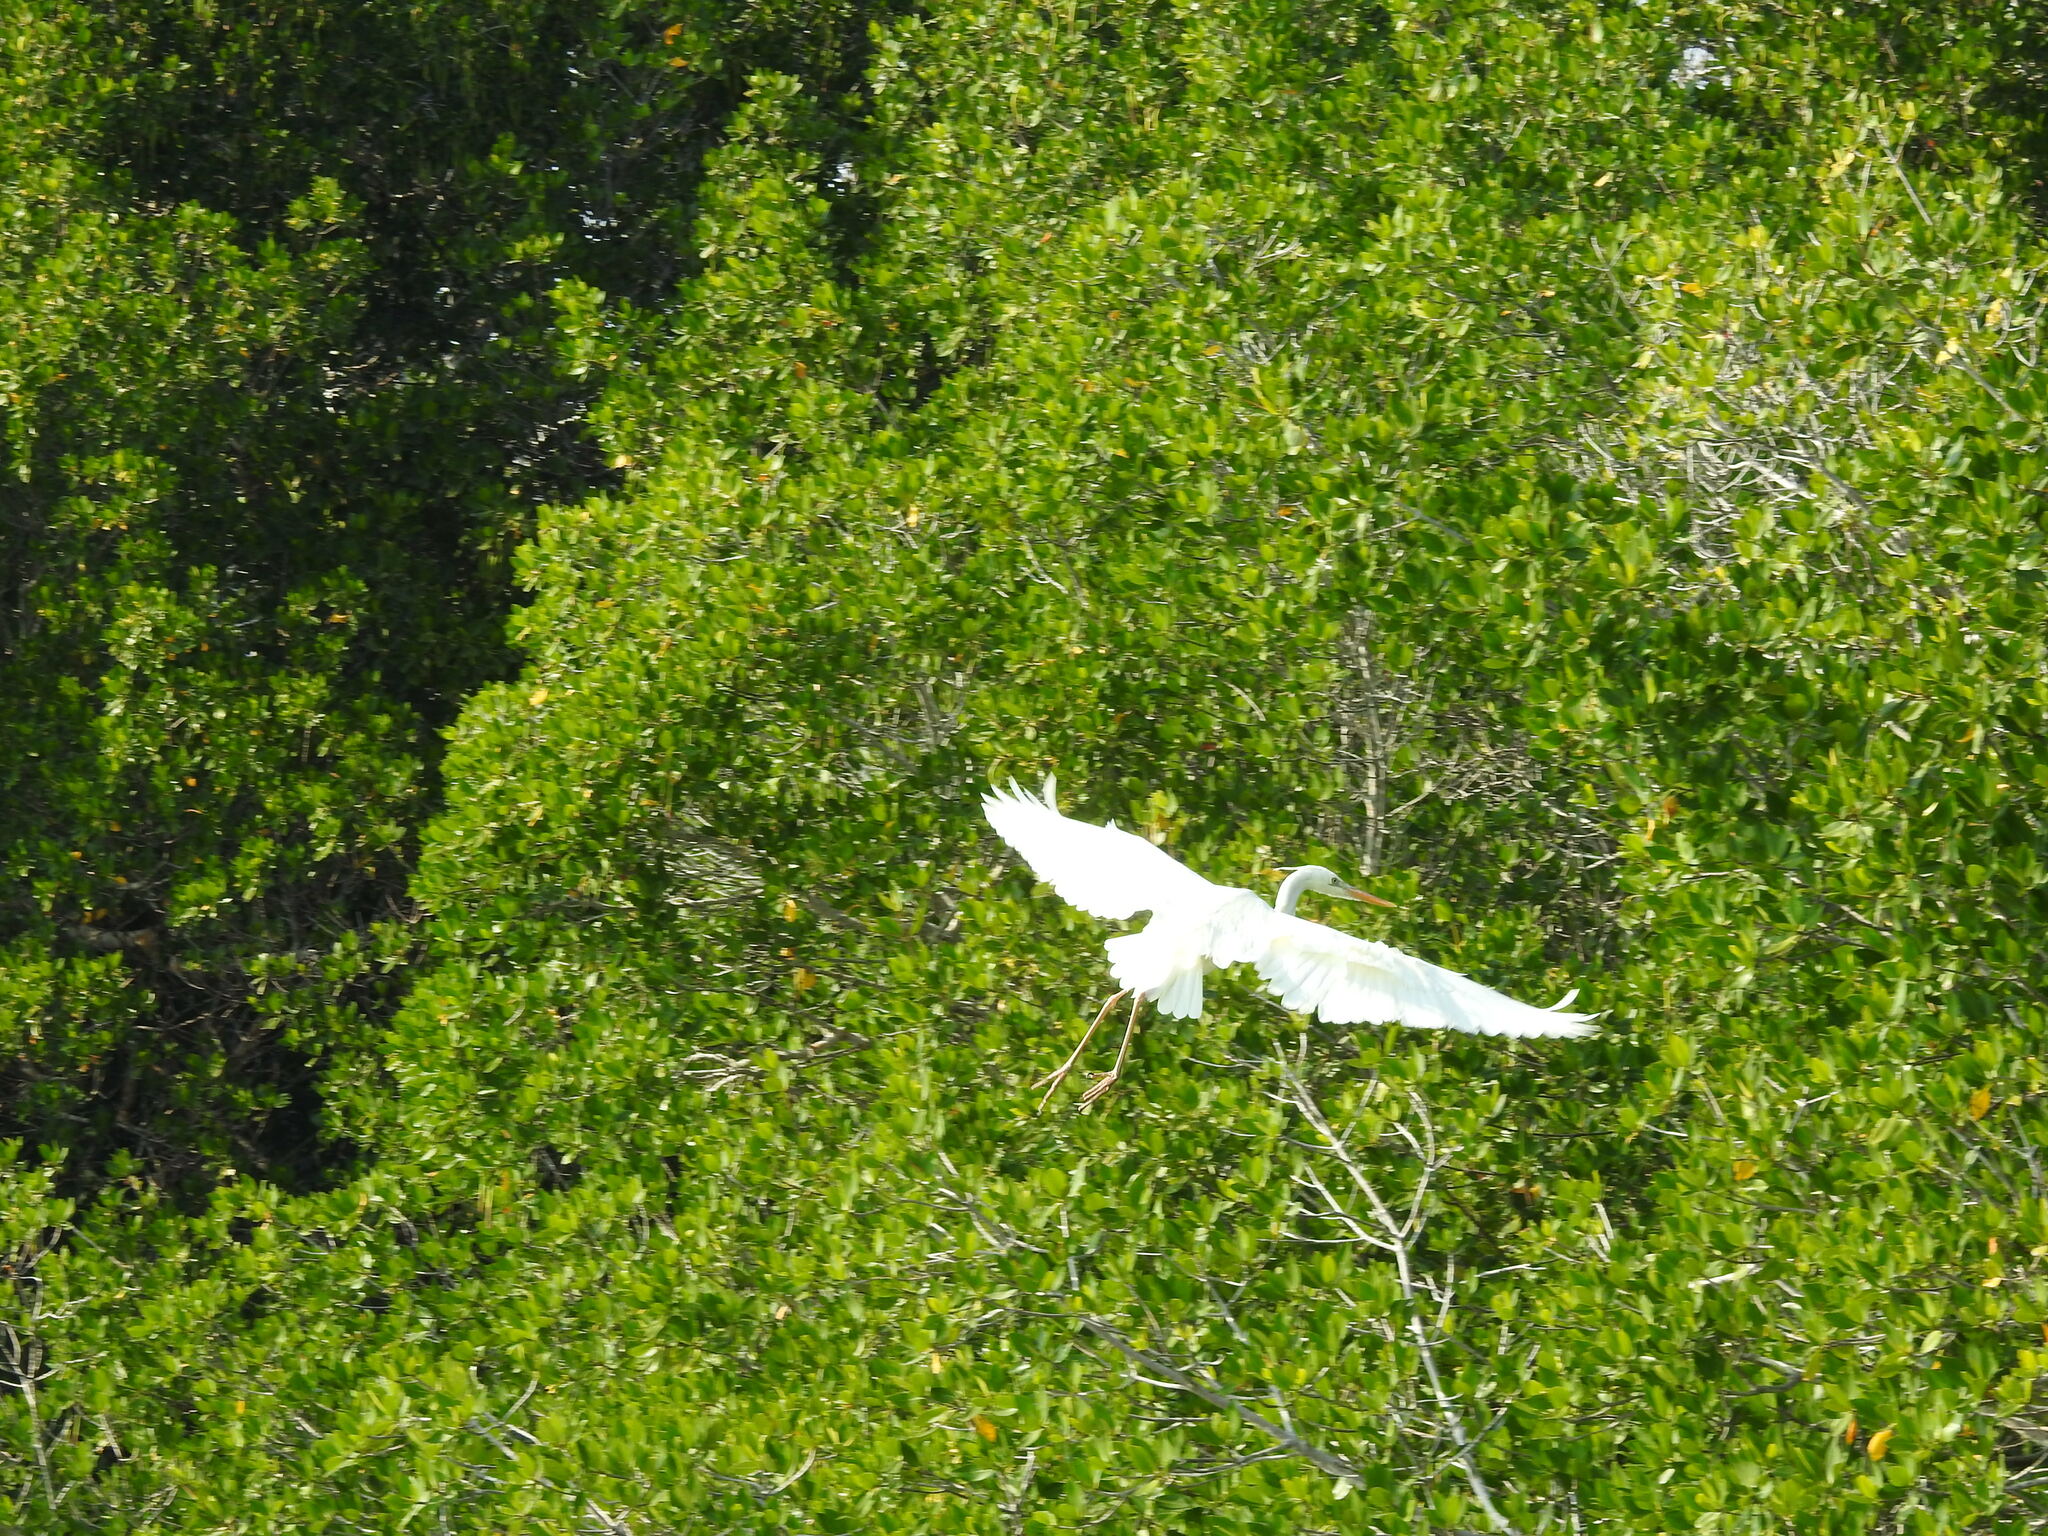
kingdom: Animalia
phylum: Chordata
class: Aves
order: Pelecaniformes
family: Ardeidae
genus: Ardea
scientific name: Ardea herodias
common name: Great blue heron
